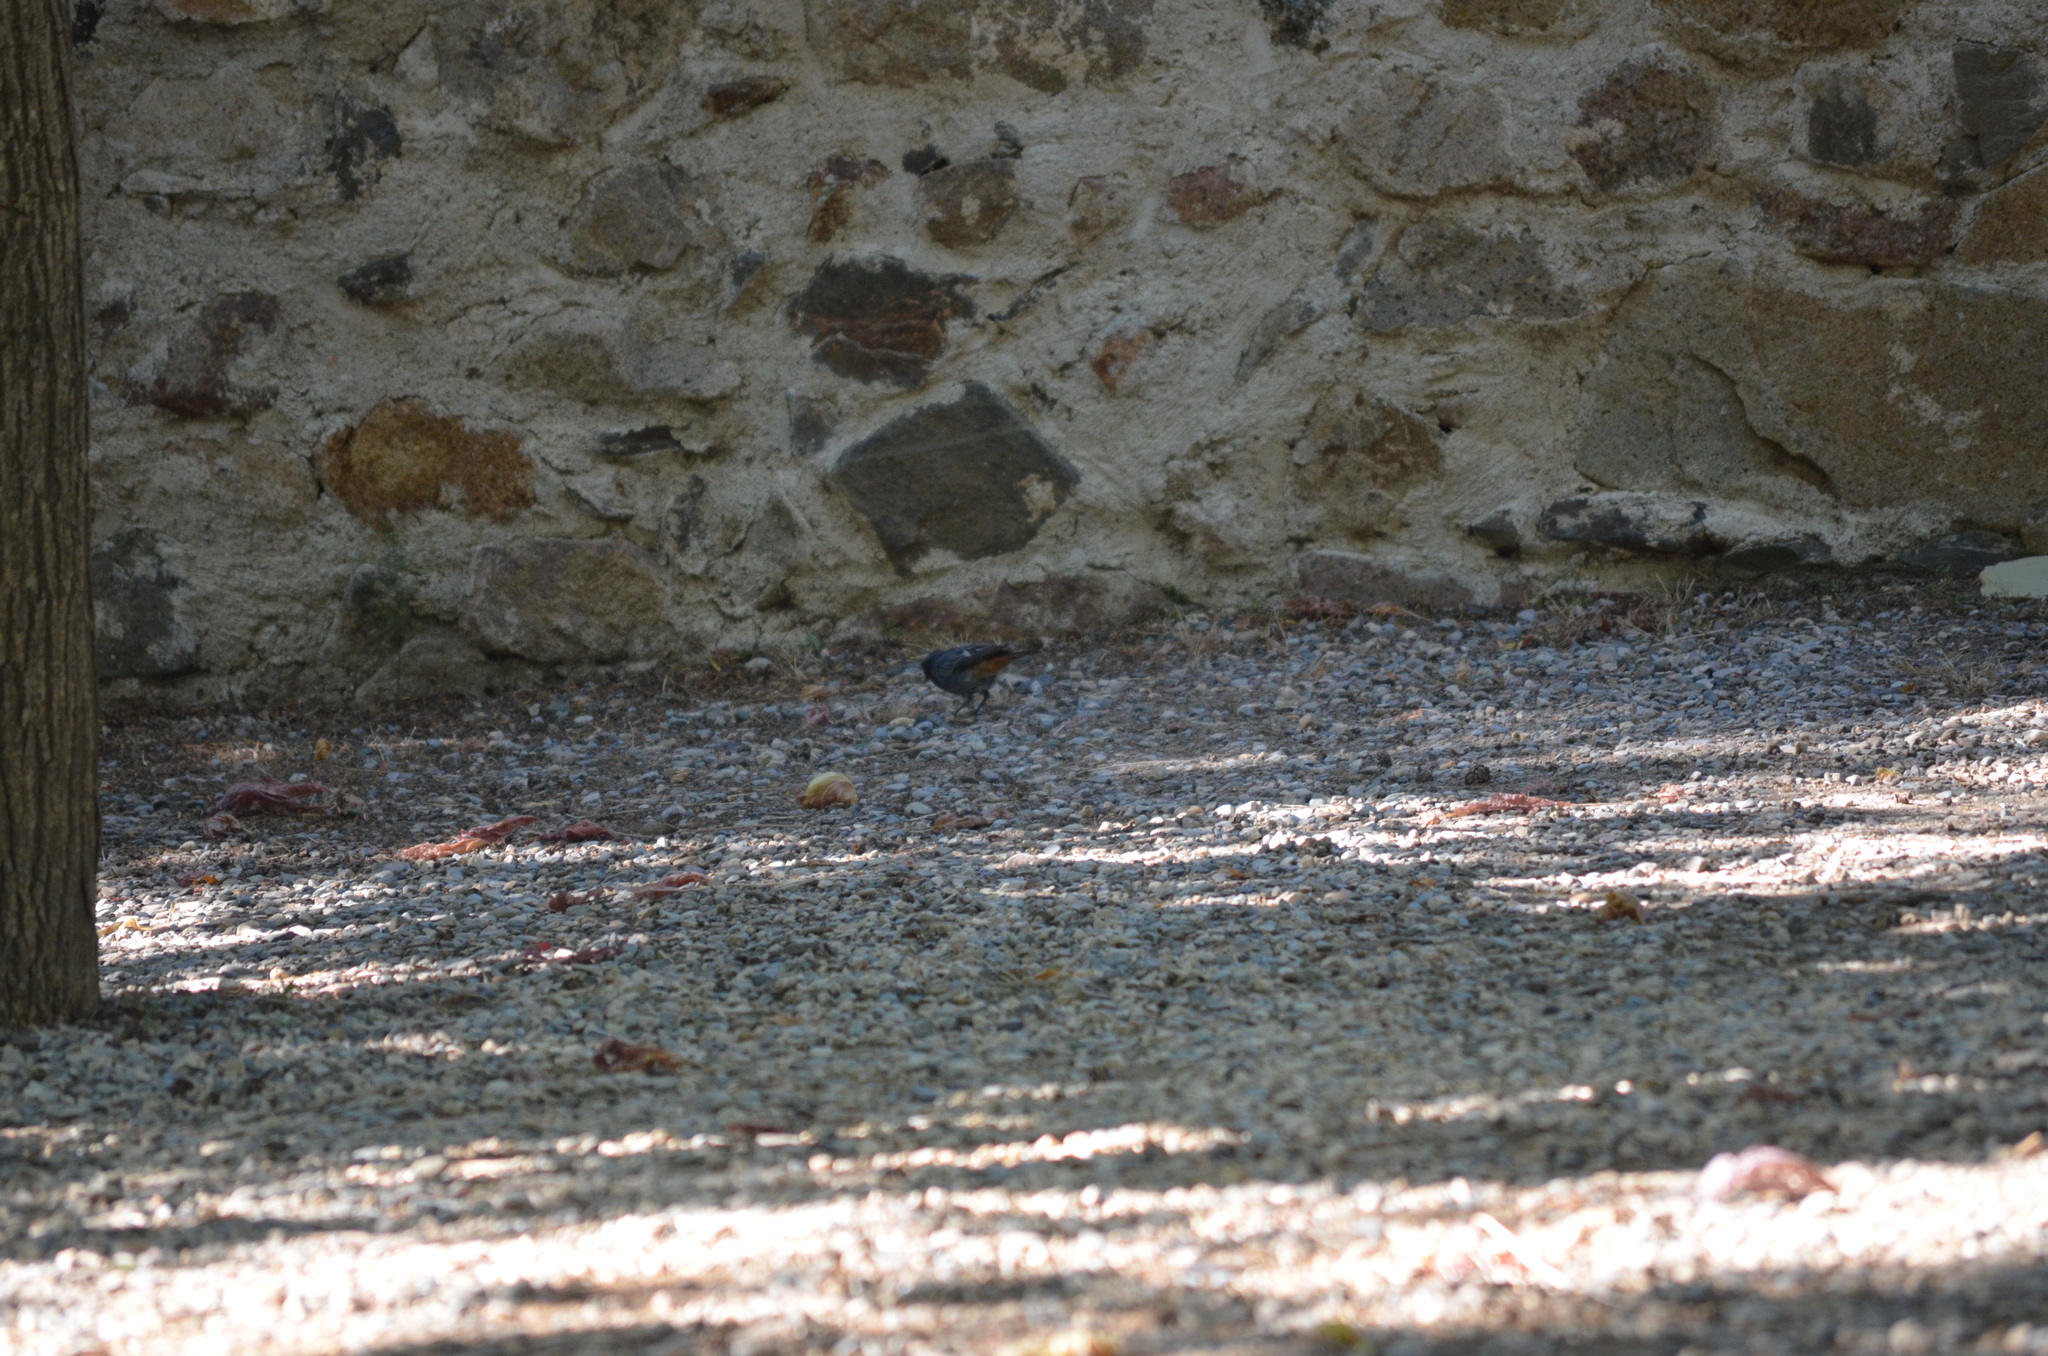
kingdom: Animalia
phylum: Chordata
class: Aves
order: Passeriformes
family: Muscicapidae
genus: Phoenicurus
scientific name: Phoenicurus ochruros
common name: Black redstart
